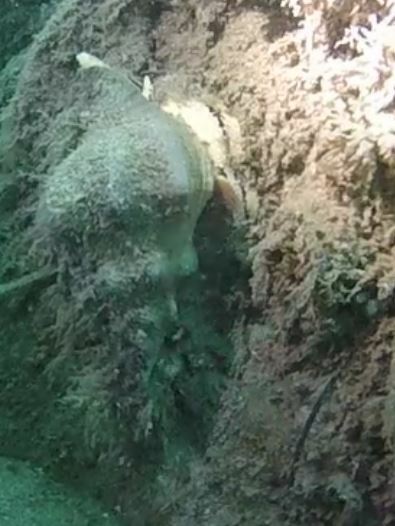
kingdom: Animalia
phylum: Mollusca
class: Gastropoda
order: Neogastropoda
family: Austrosiphonidae
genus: Kelletia
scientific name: Kelletia kelletii
